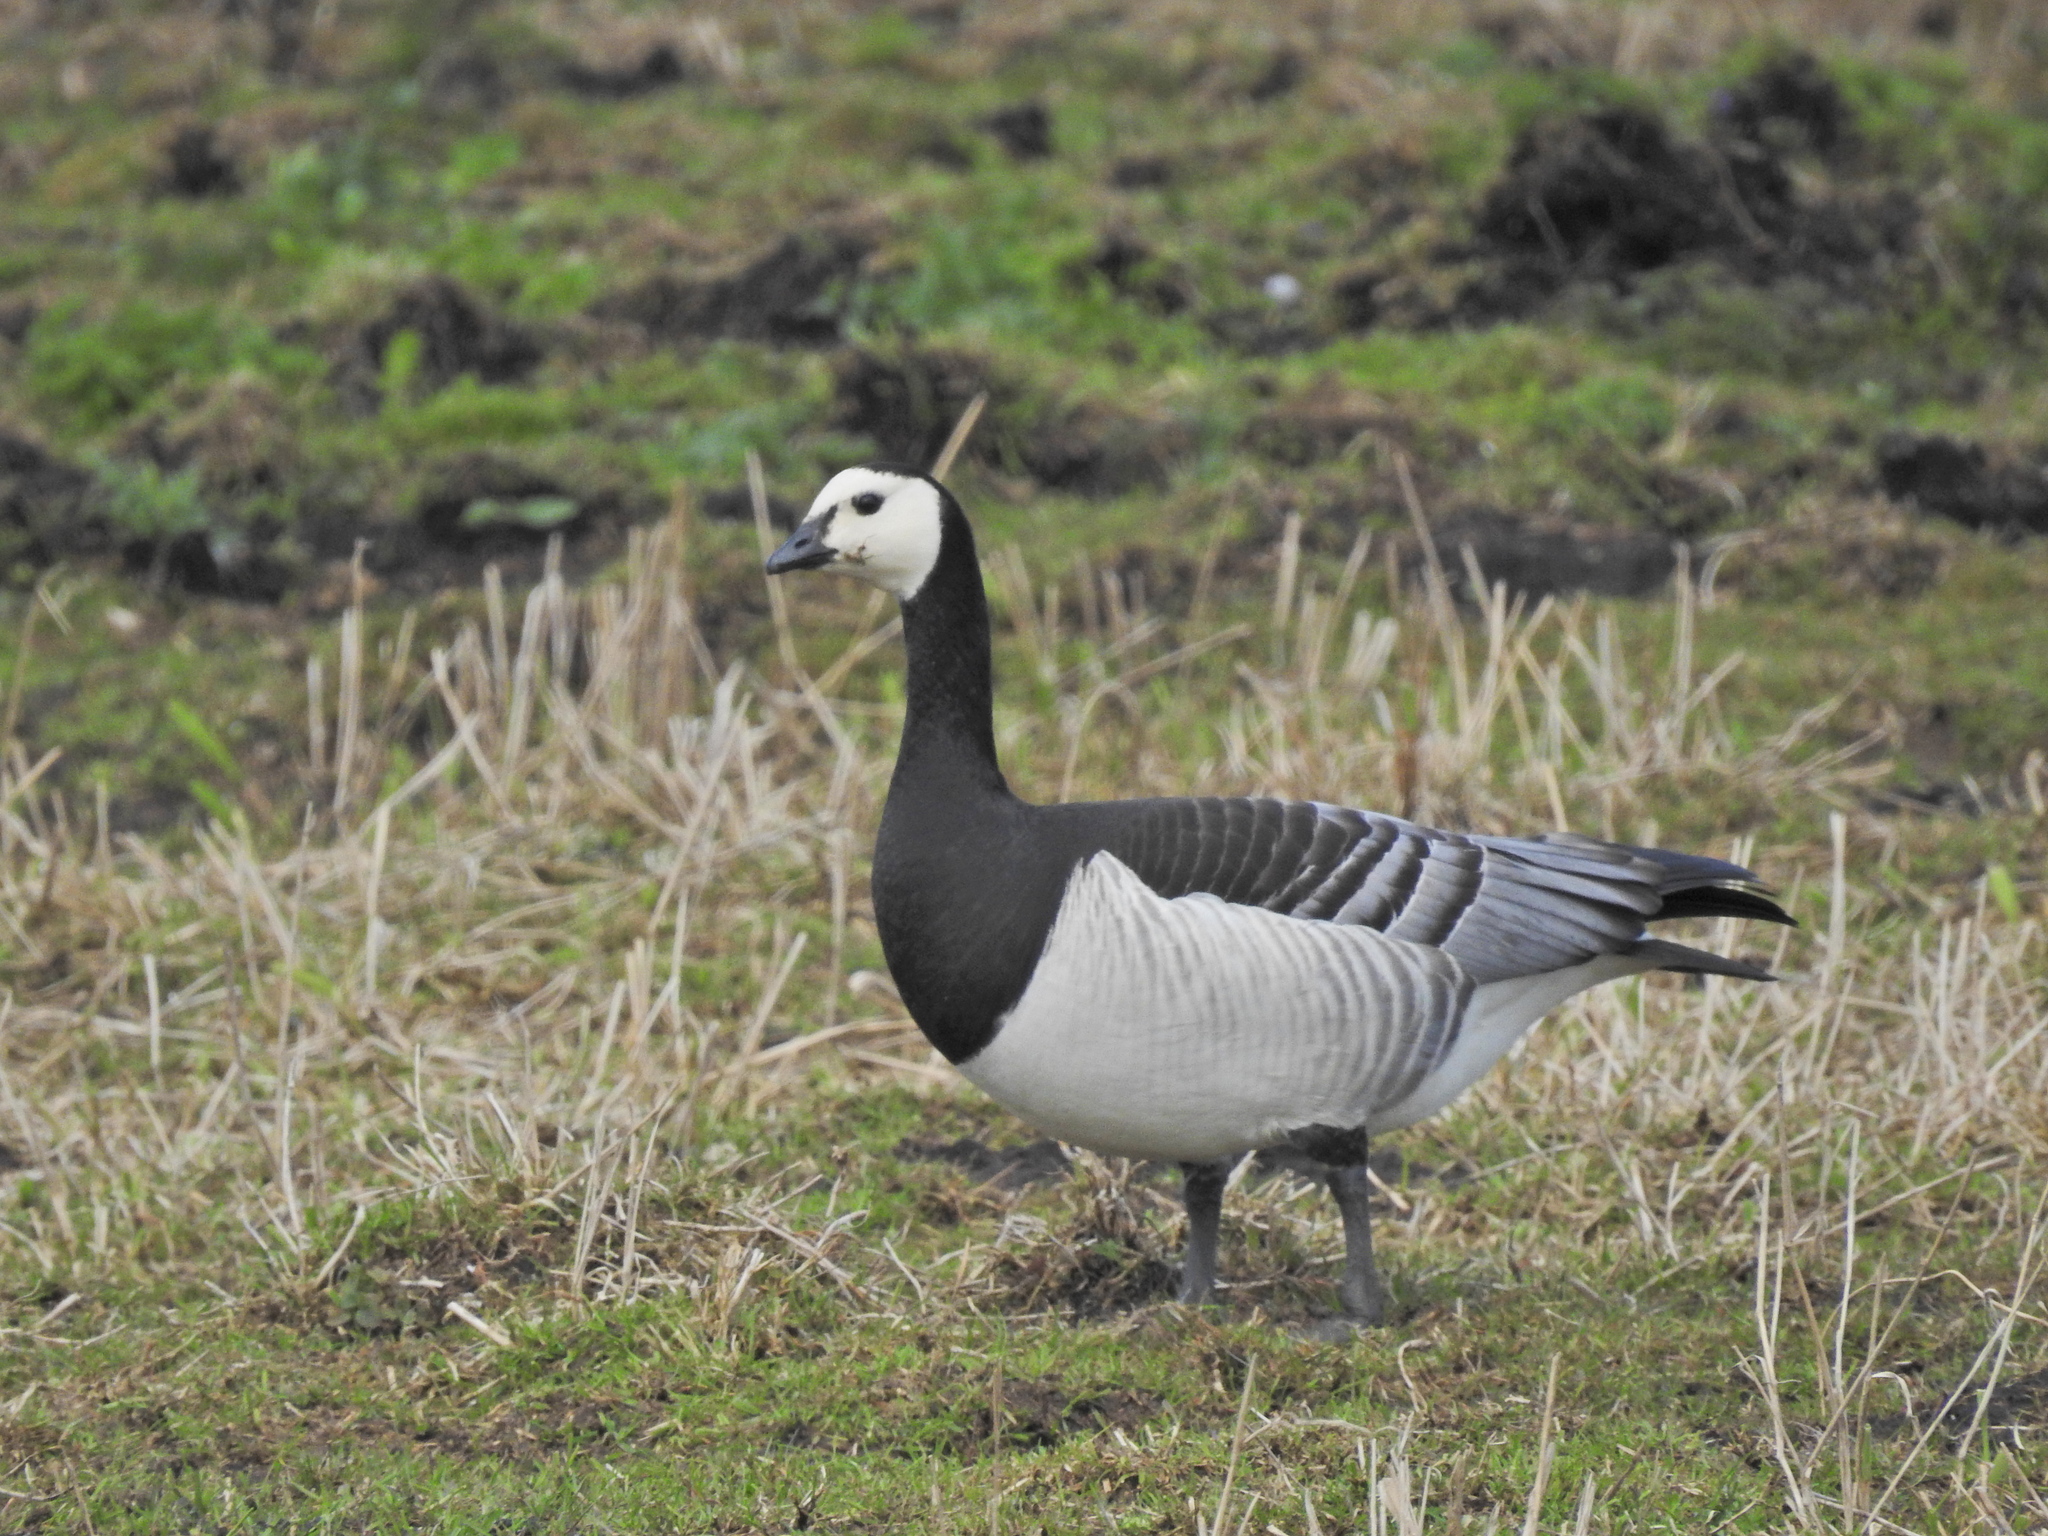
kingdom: Animalia
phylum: Chordata
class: Aves
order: Anseriformes
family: Anatidae
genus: Branta
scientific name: Branta leucopsis
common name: Barnacle goose
